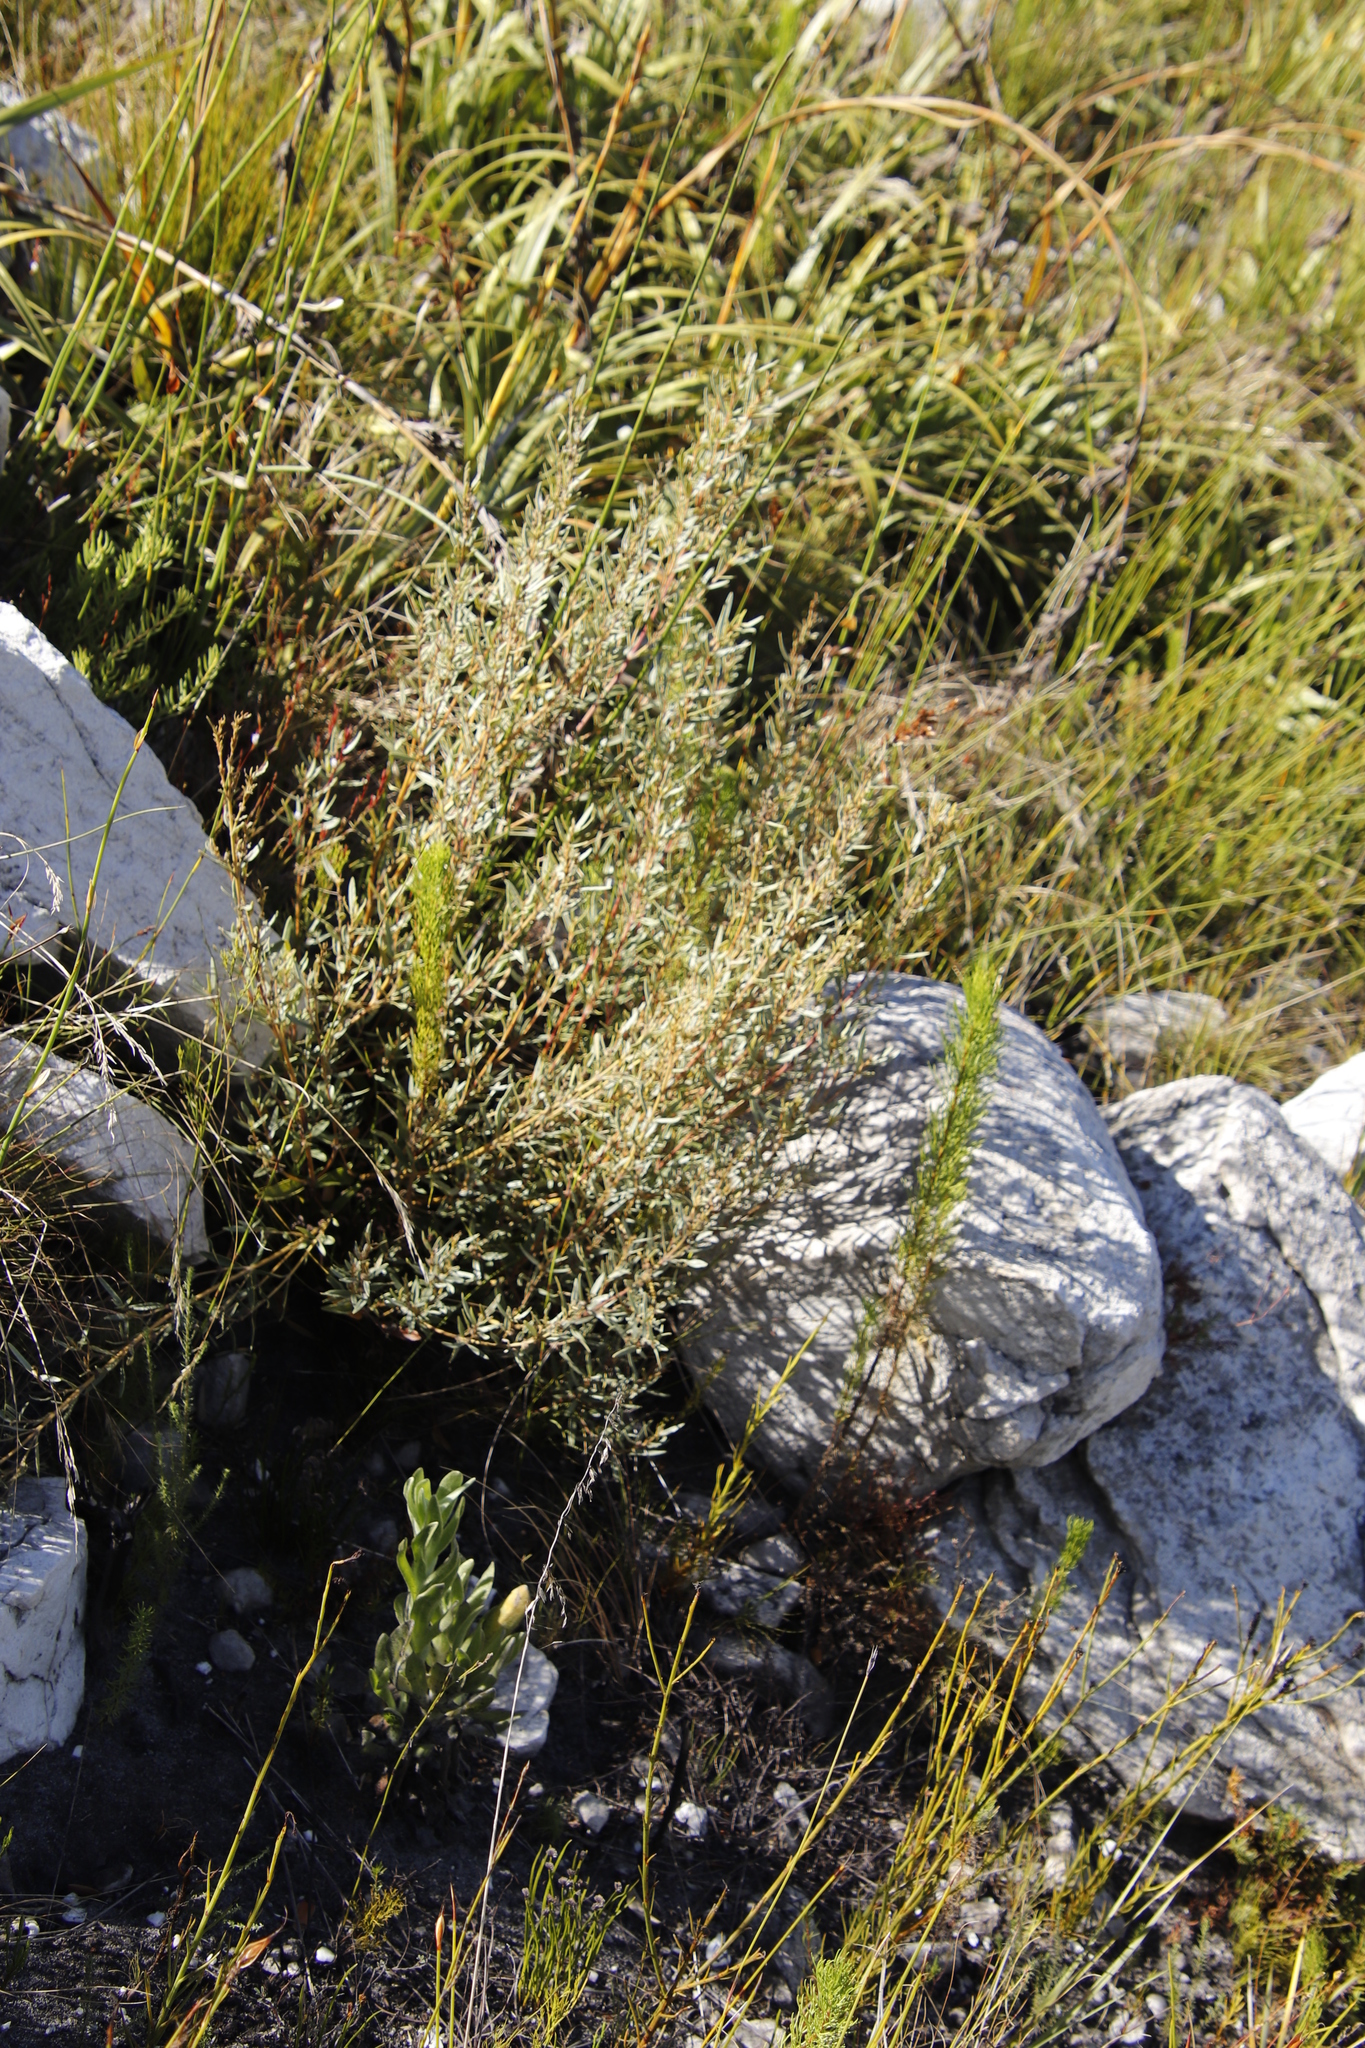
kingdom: Plantae
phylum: Tracheophyta
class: Magnoliopsida
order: Cornales
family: Grubbiaceae
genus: Grubbia
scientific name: Grubbia tomentosa
